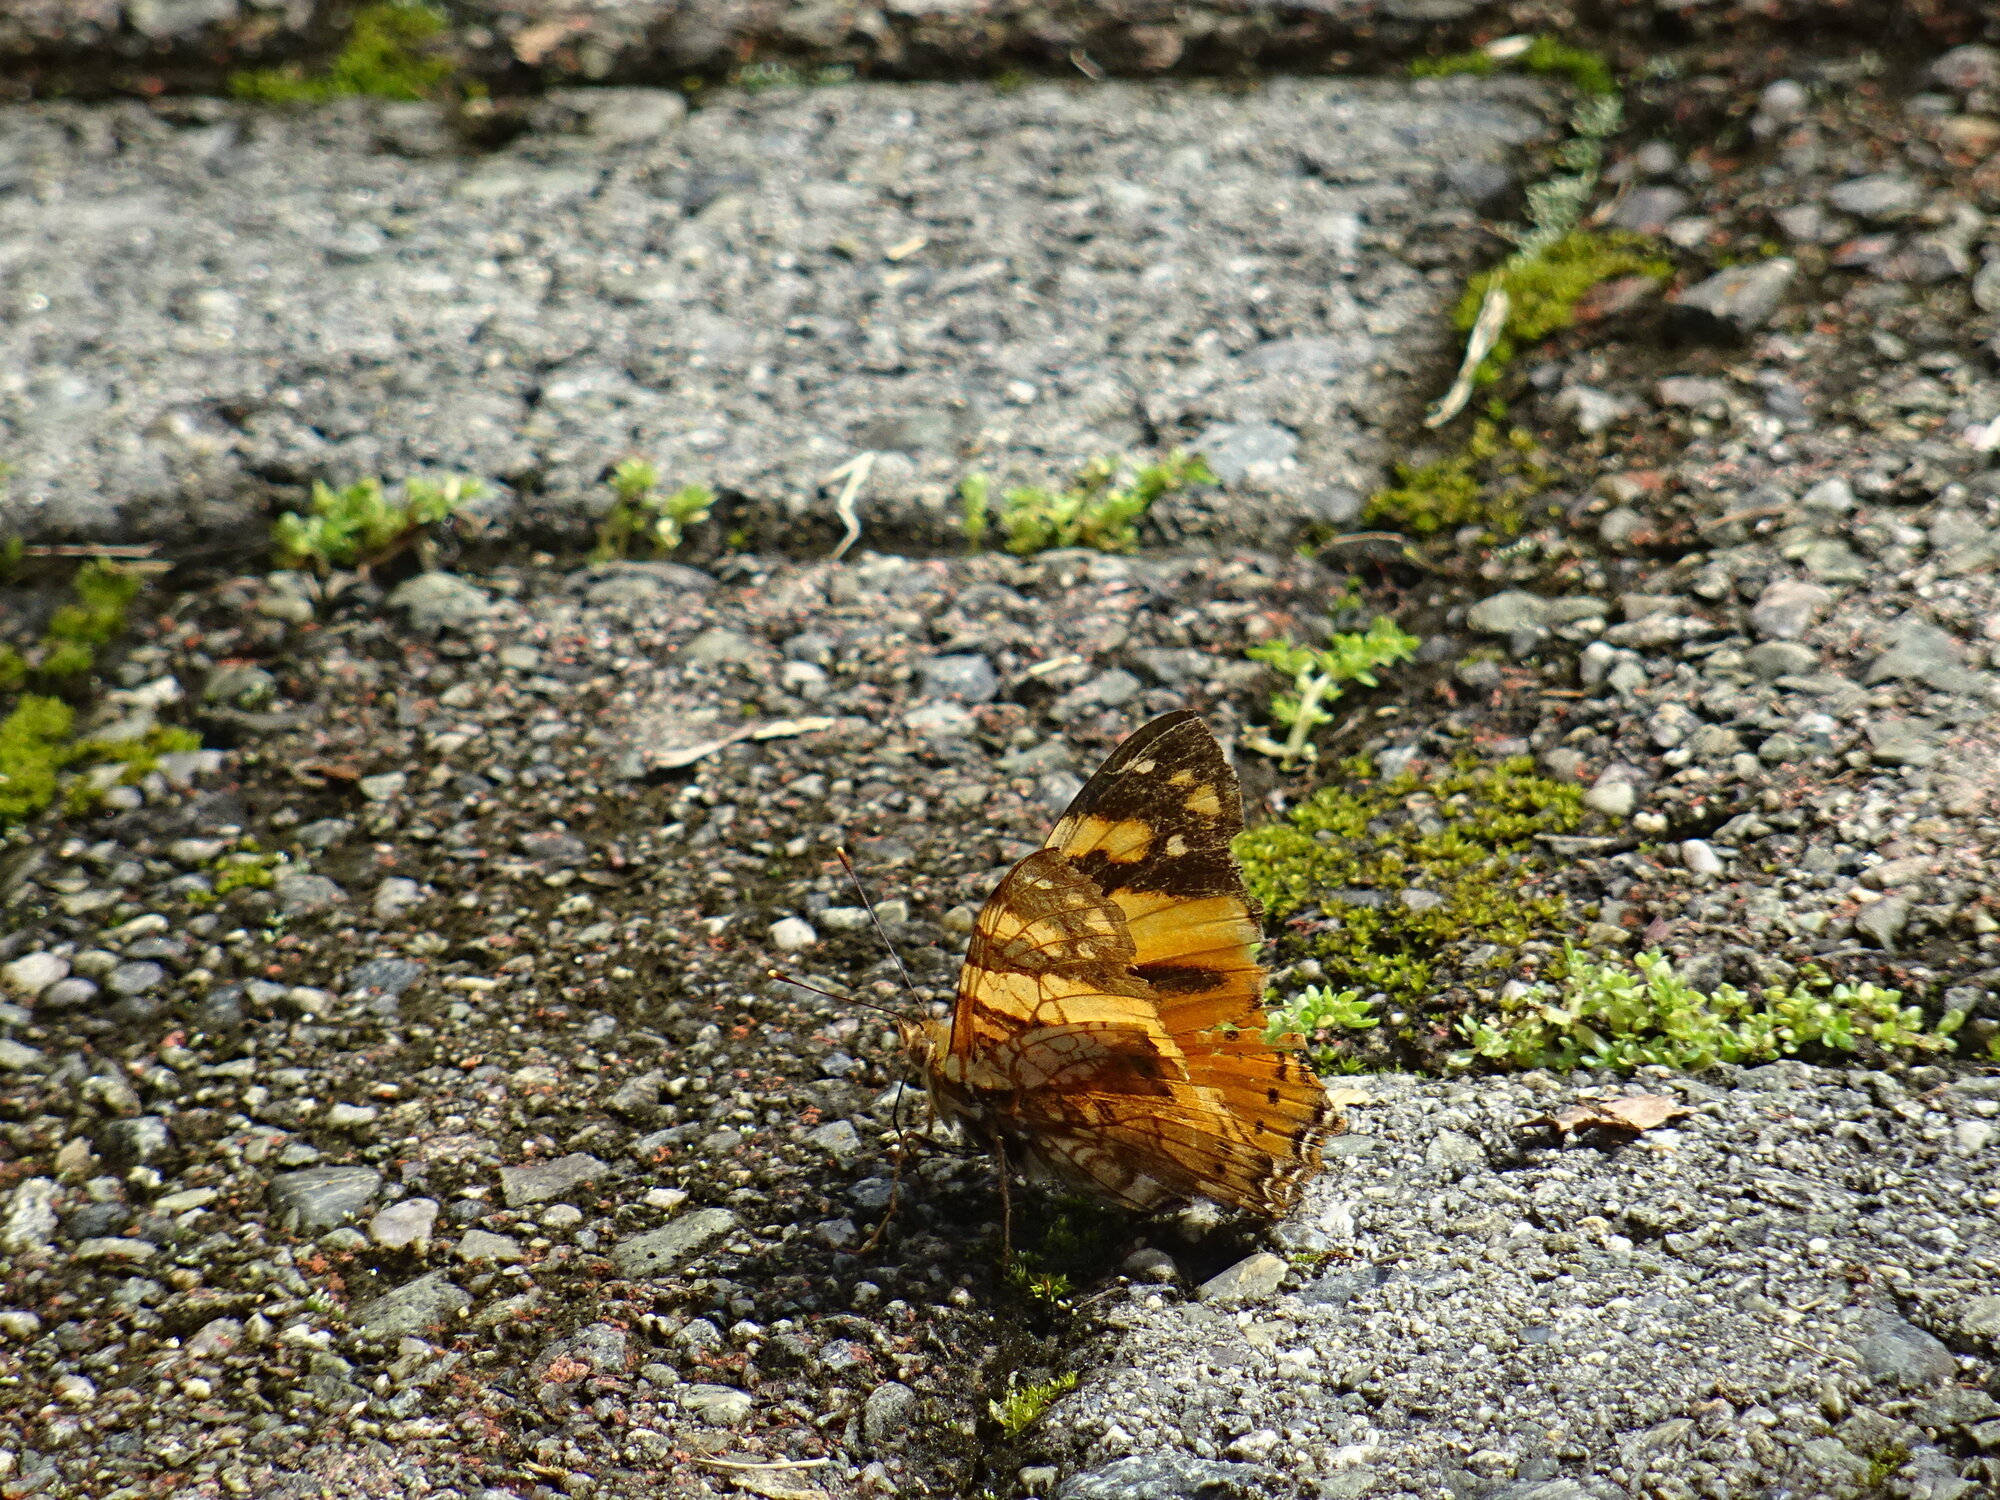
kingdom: Animalia
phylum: Arthropoda
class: Insecta
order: Lepidoptera
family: Nymphalidae
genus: Hypanartia
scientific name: Hypanartia lethe
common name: Orange mapwing
